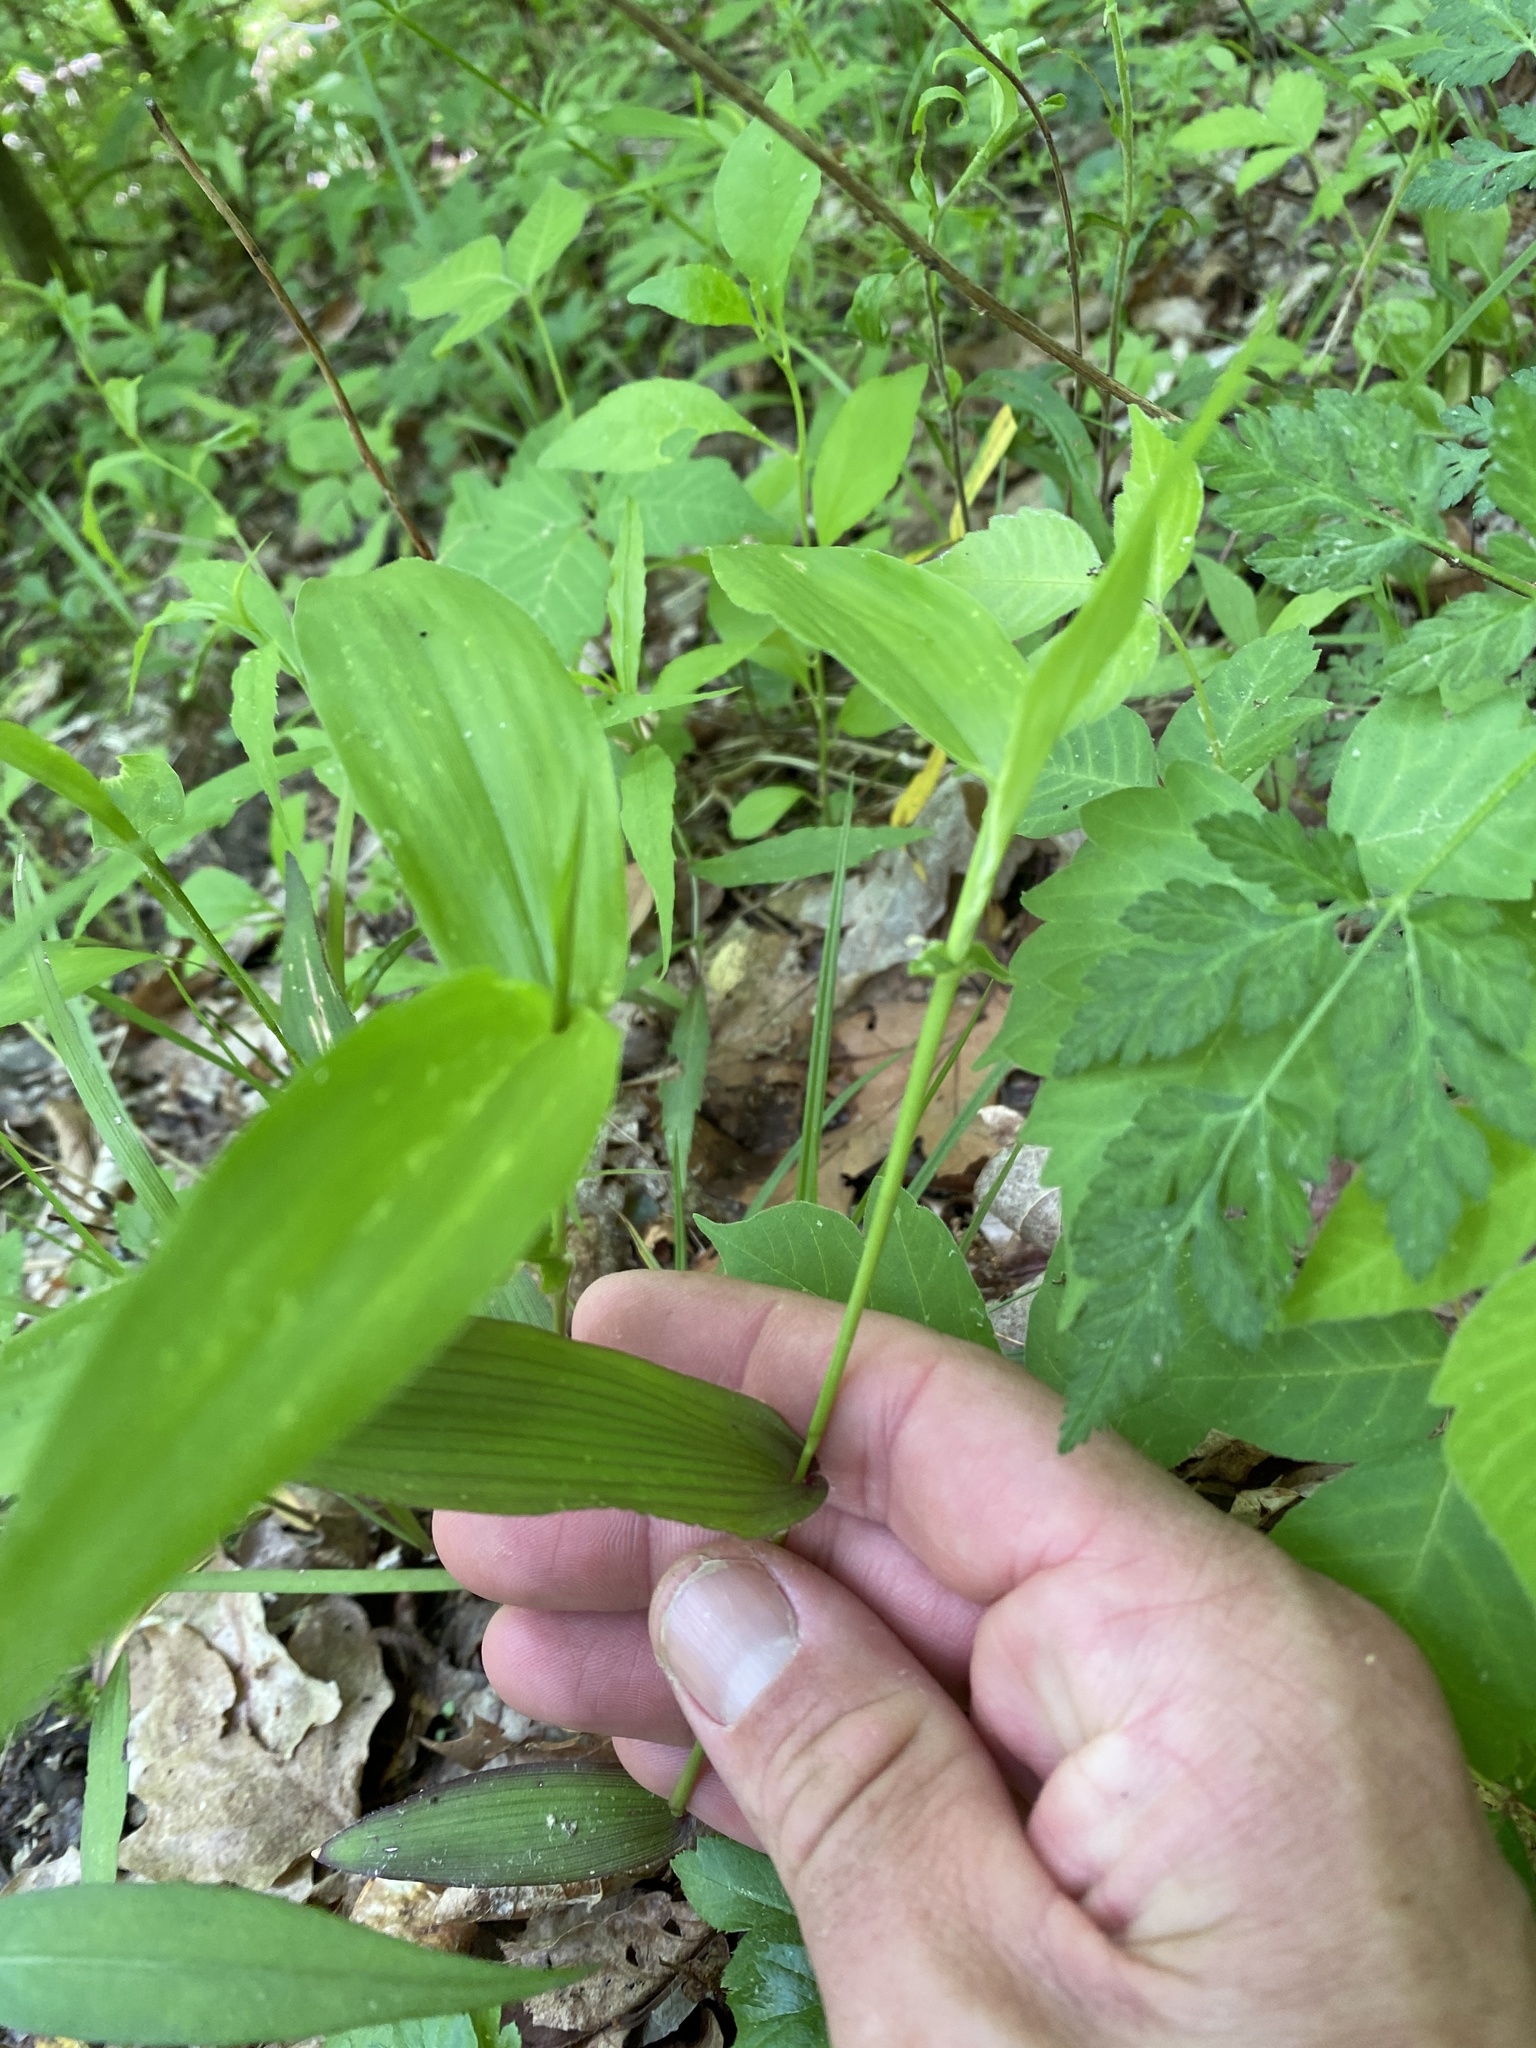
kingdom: Plantae
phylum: Tracheophyta
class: Liliopsida
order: Poales
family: Poaceae
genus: Dichanthelium
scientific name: Dichanthelium latifolium
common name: Broad-leaved panicgrass
